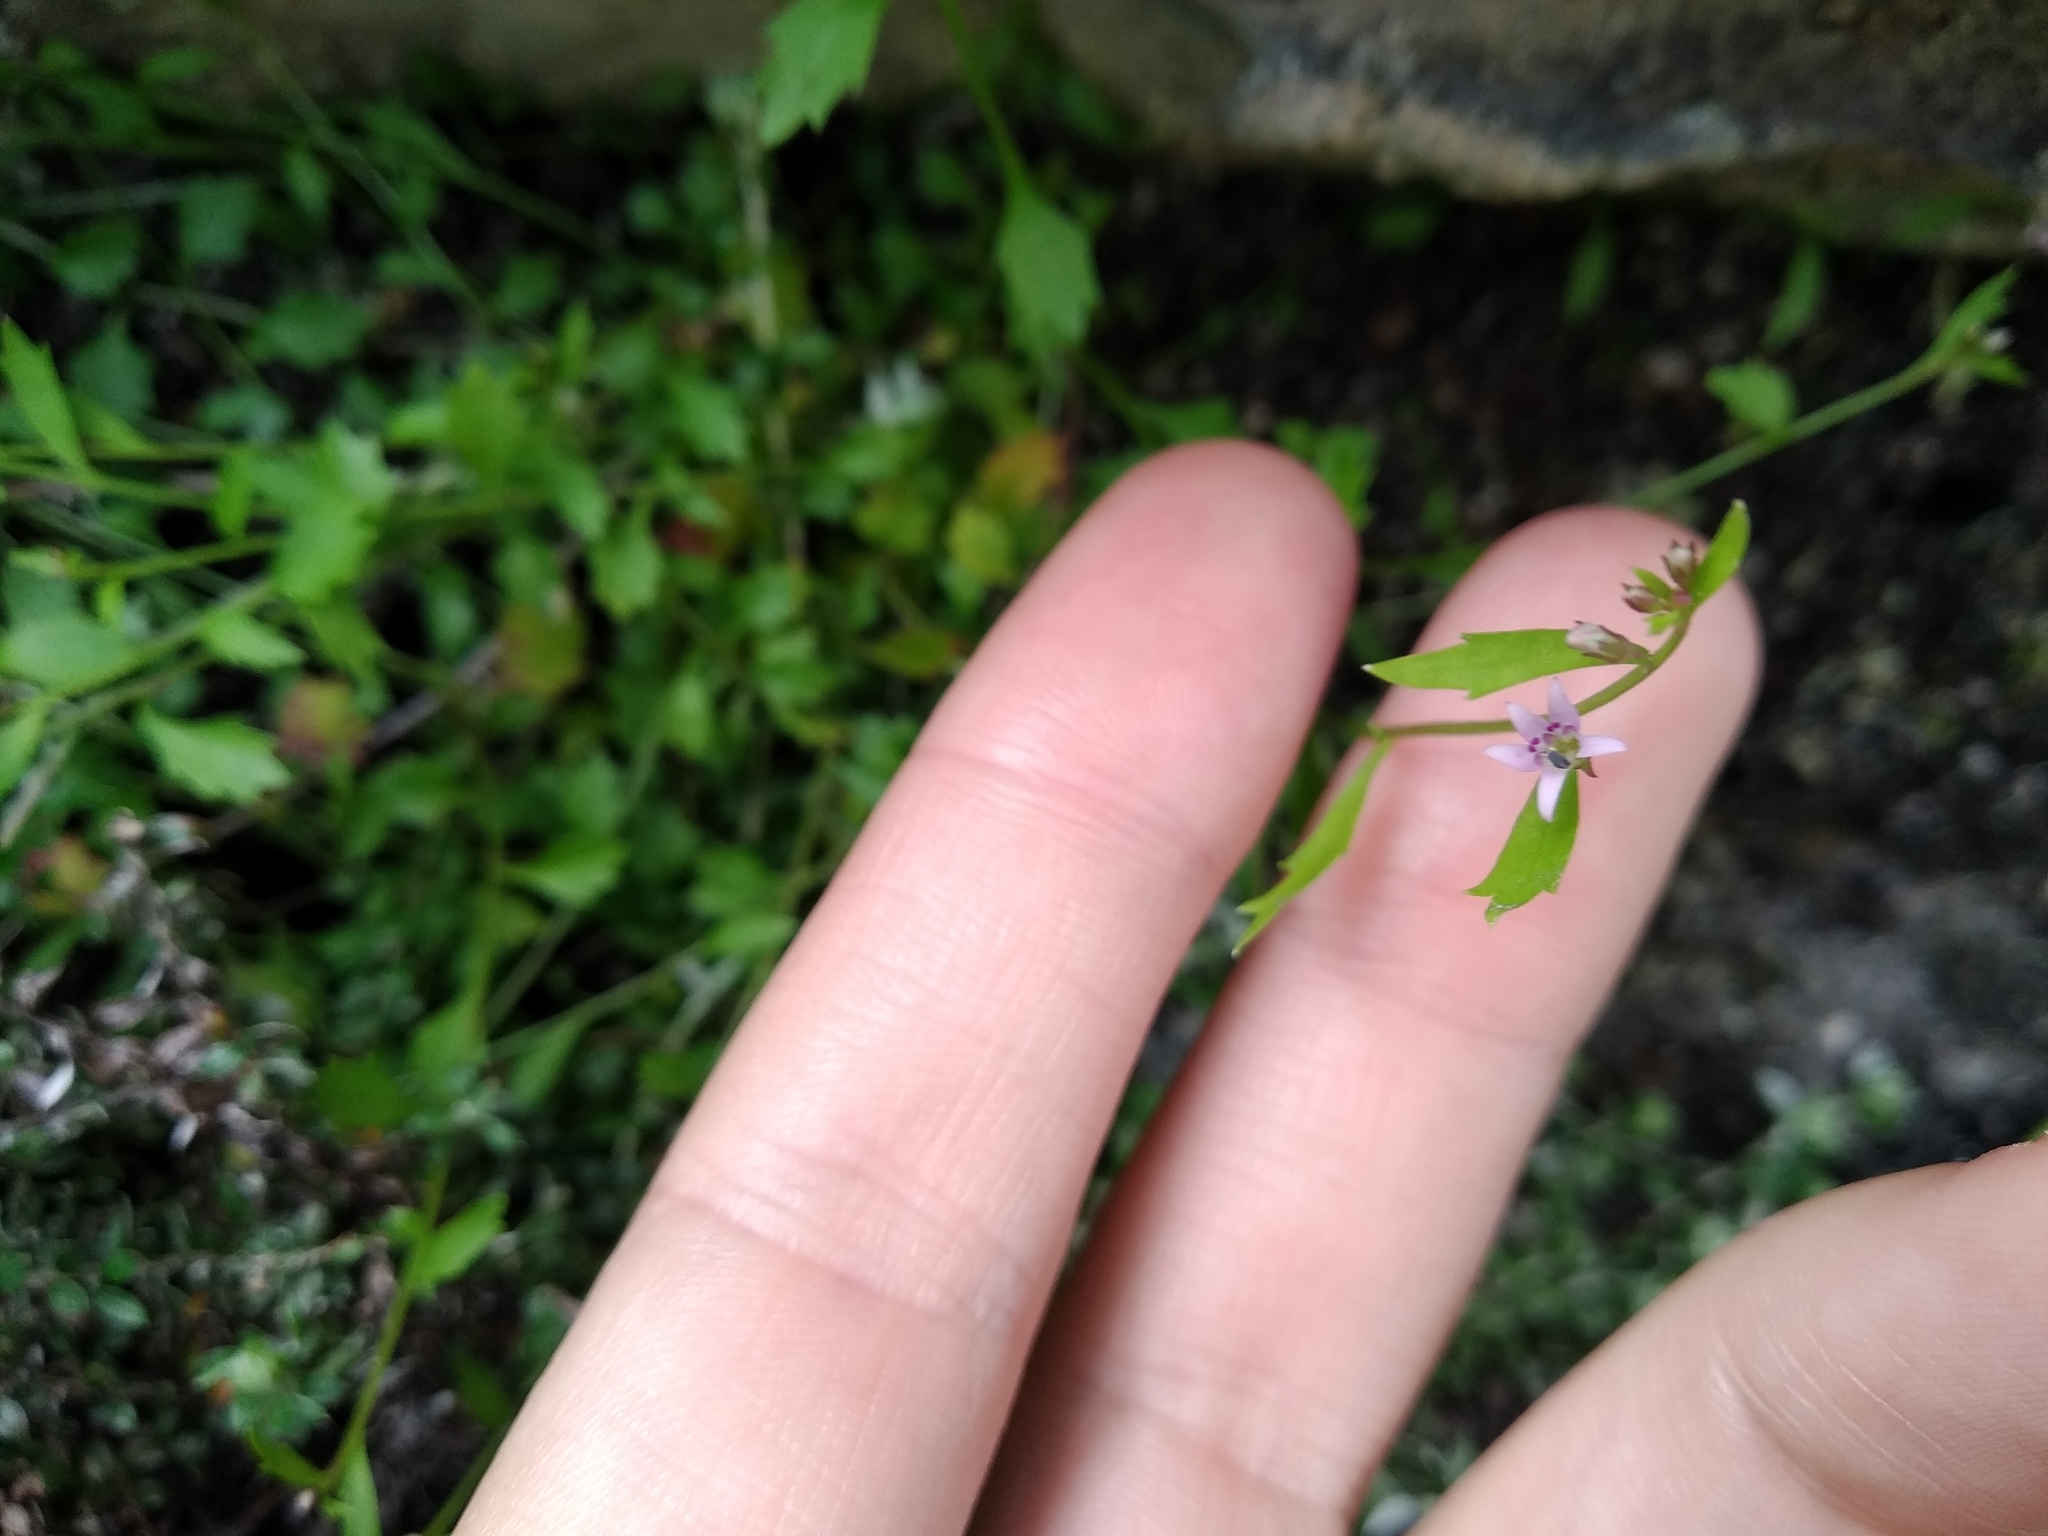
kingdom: Plantae
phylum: Tracheophyta
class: Magnoliopsida
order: Asterales
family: Campanulaceae
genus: Lobelia
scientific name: Lobelia eckloniana
